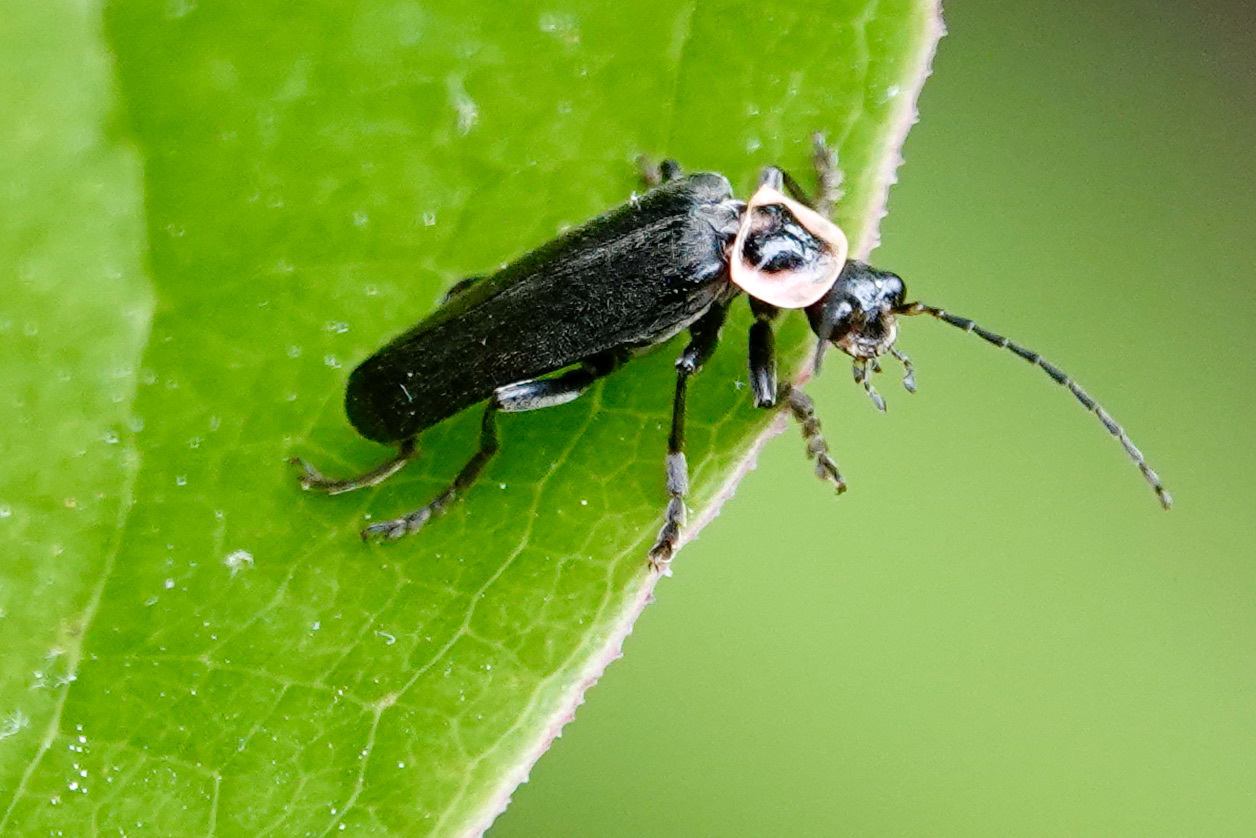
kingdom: Animalia
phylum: Arthropoda
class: Insecta
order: Coleoptera
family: Cantharidae
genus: Atalantycha
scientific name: Atalantycha neglecta
